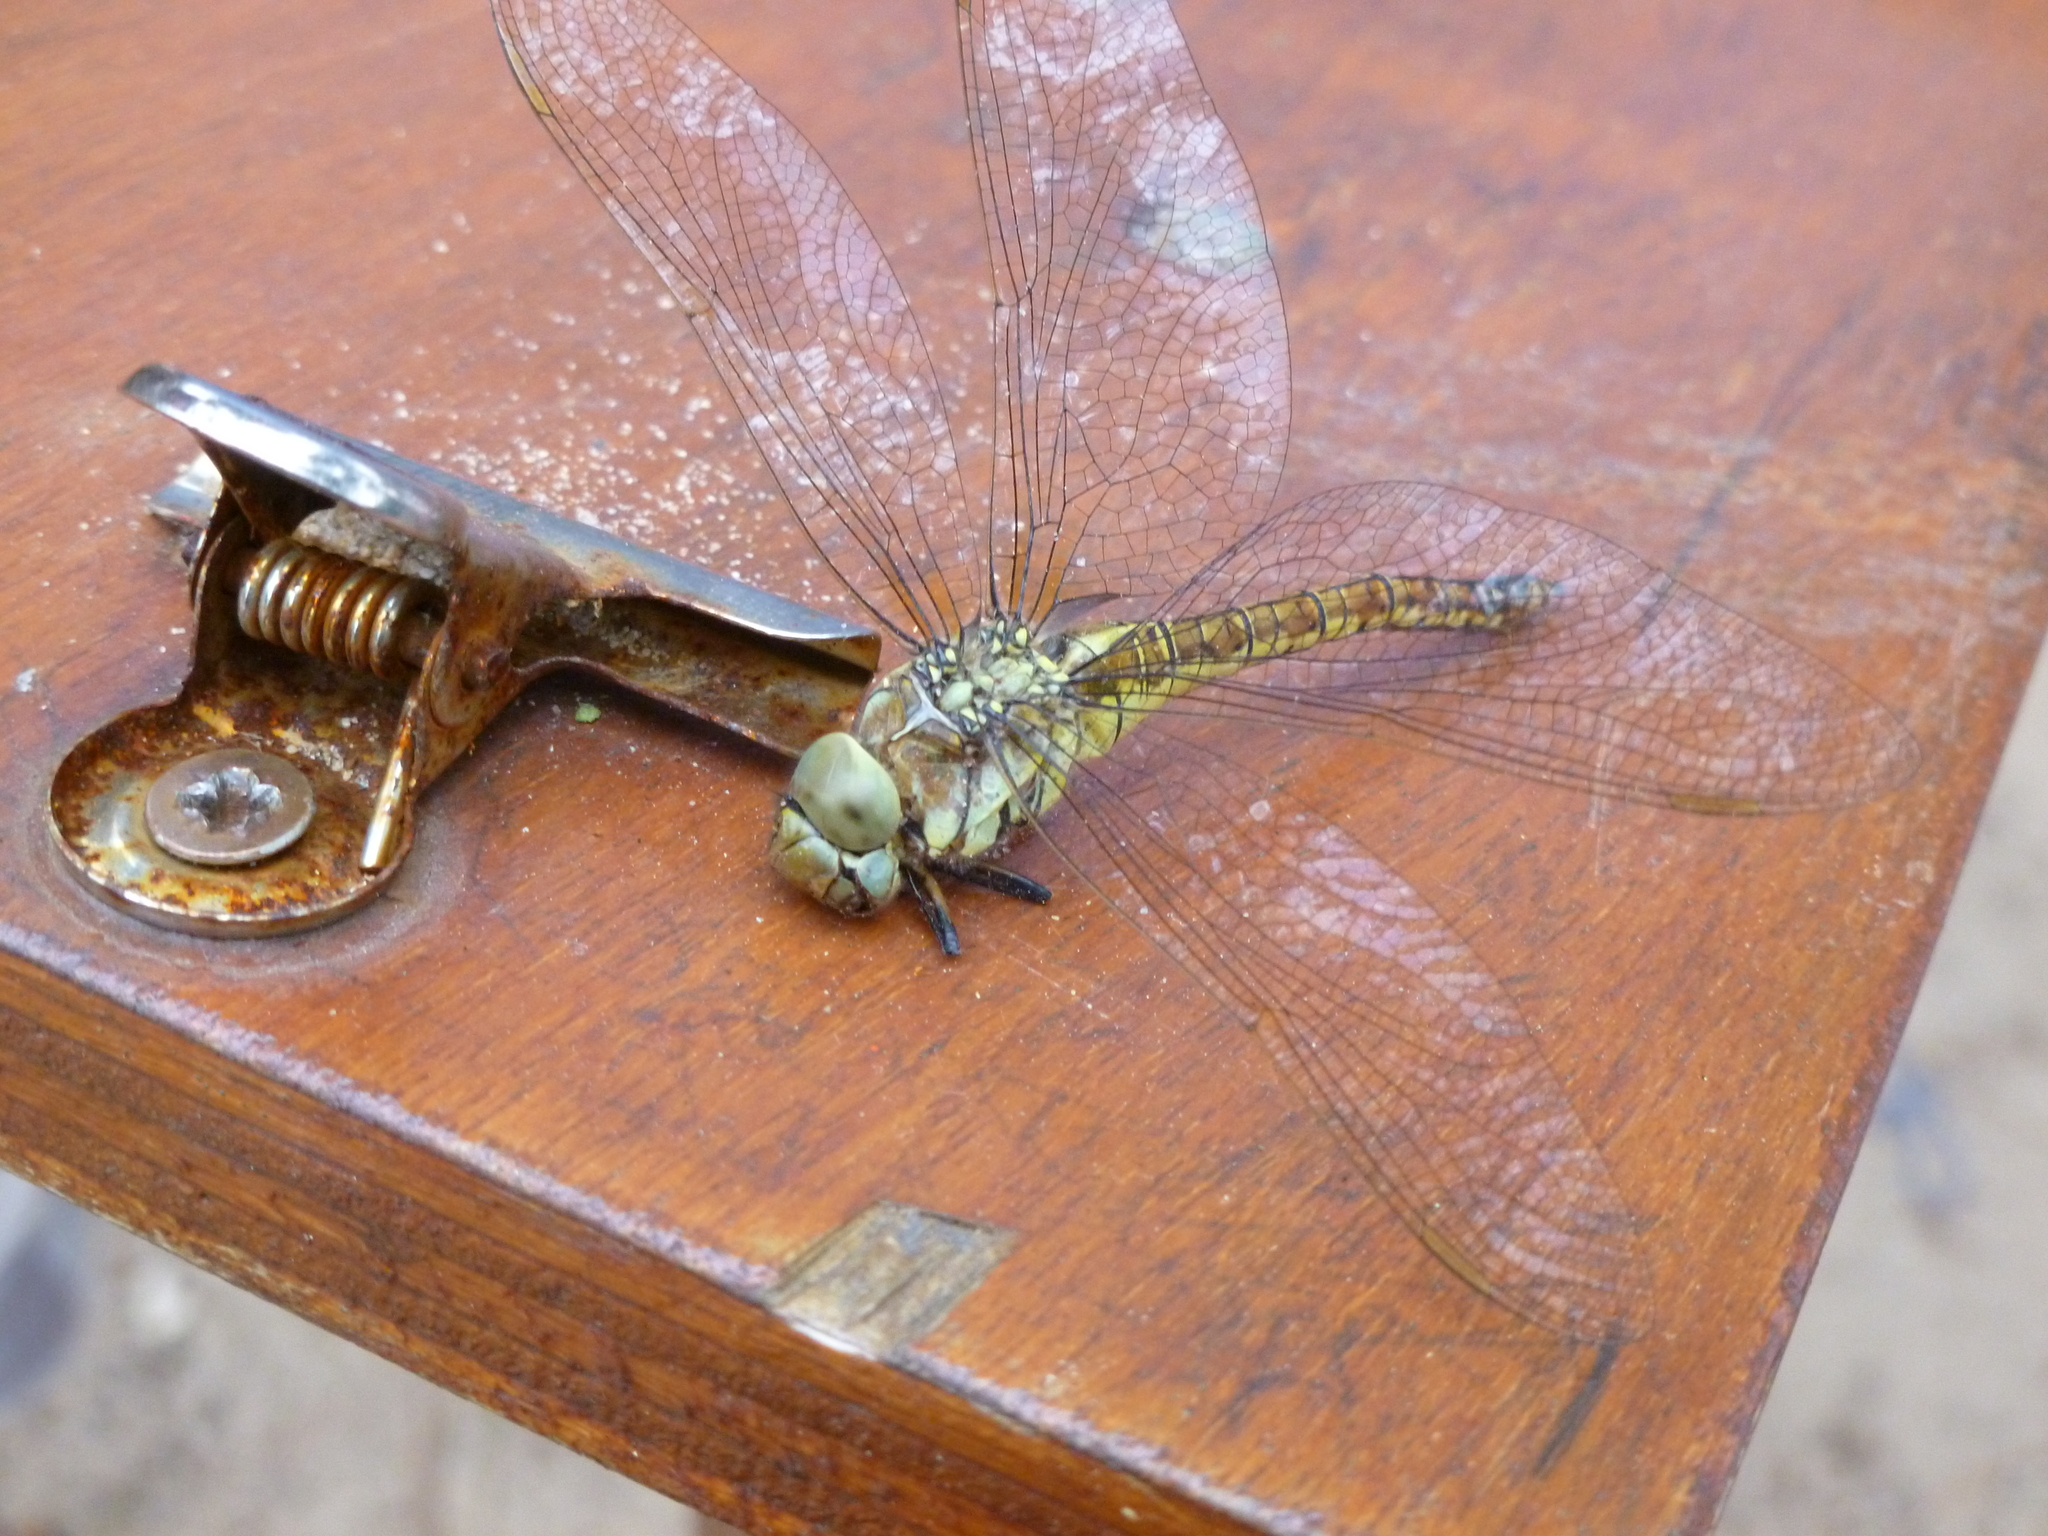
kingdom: Animalia
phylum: Arthropoda
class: Insecta
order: Odonata
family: Aeshnidae
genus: Aeshna
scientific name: Aeshna affinis
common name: Southern migrant hawker
